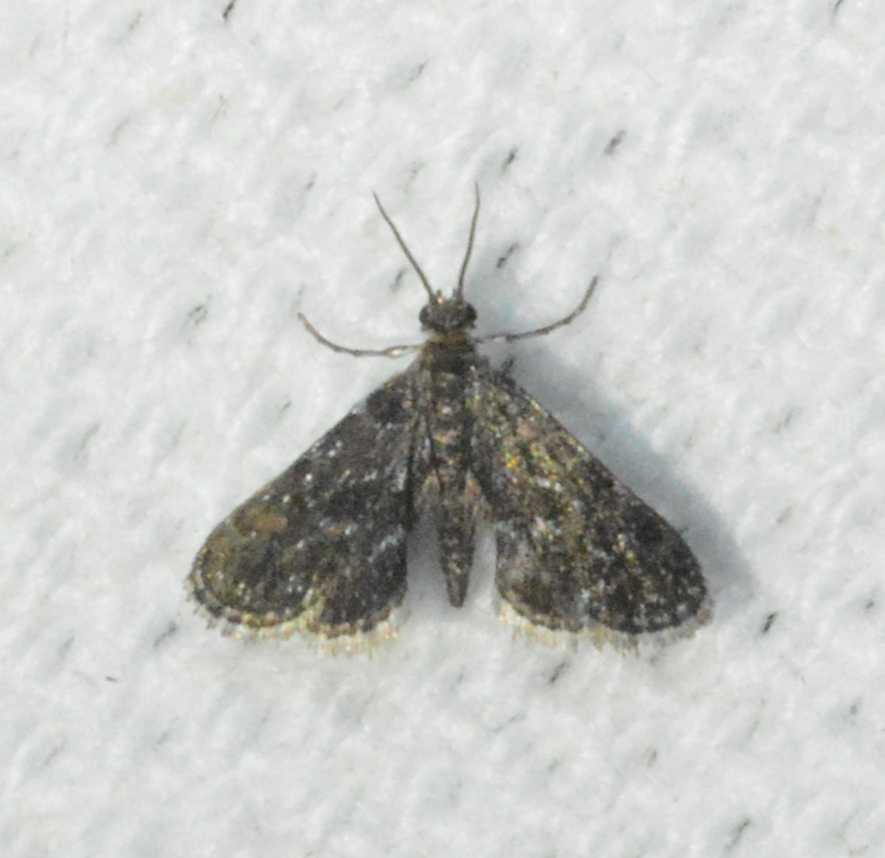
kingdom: Animalia
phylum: Arthropoda
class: Insecta
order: Lepidoptera
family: Crambidae
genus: Elophila
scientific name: Elophila tinealis
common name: Black duckweed moth
